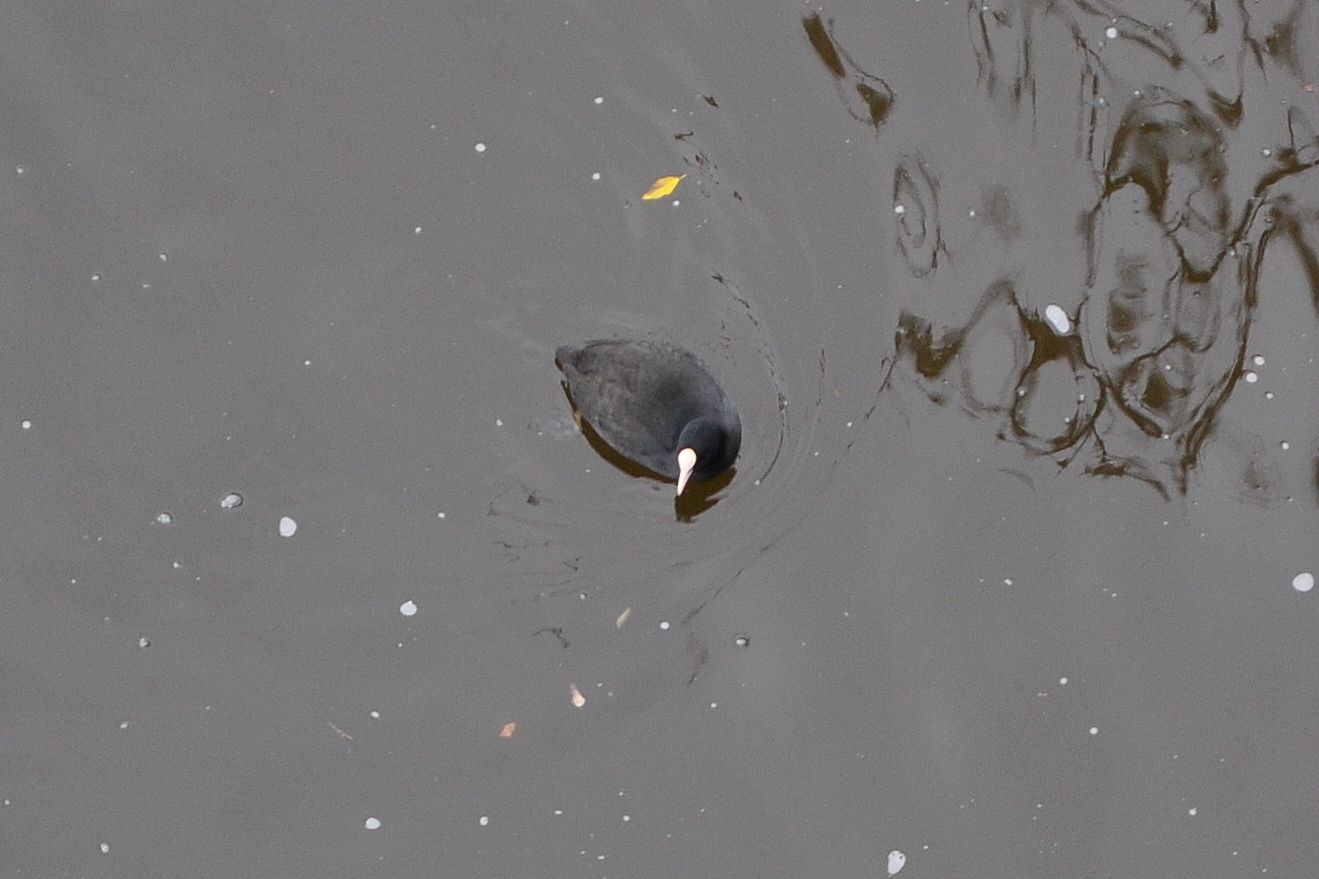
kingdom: Animalia
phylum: Chordata
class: Aves
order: Gruiformes
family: Rallidae
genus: Fulica
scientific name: Fulica atra
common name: Eurasian coot
